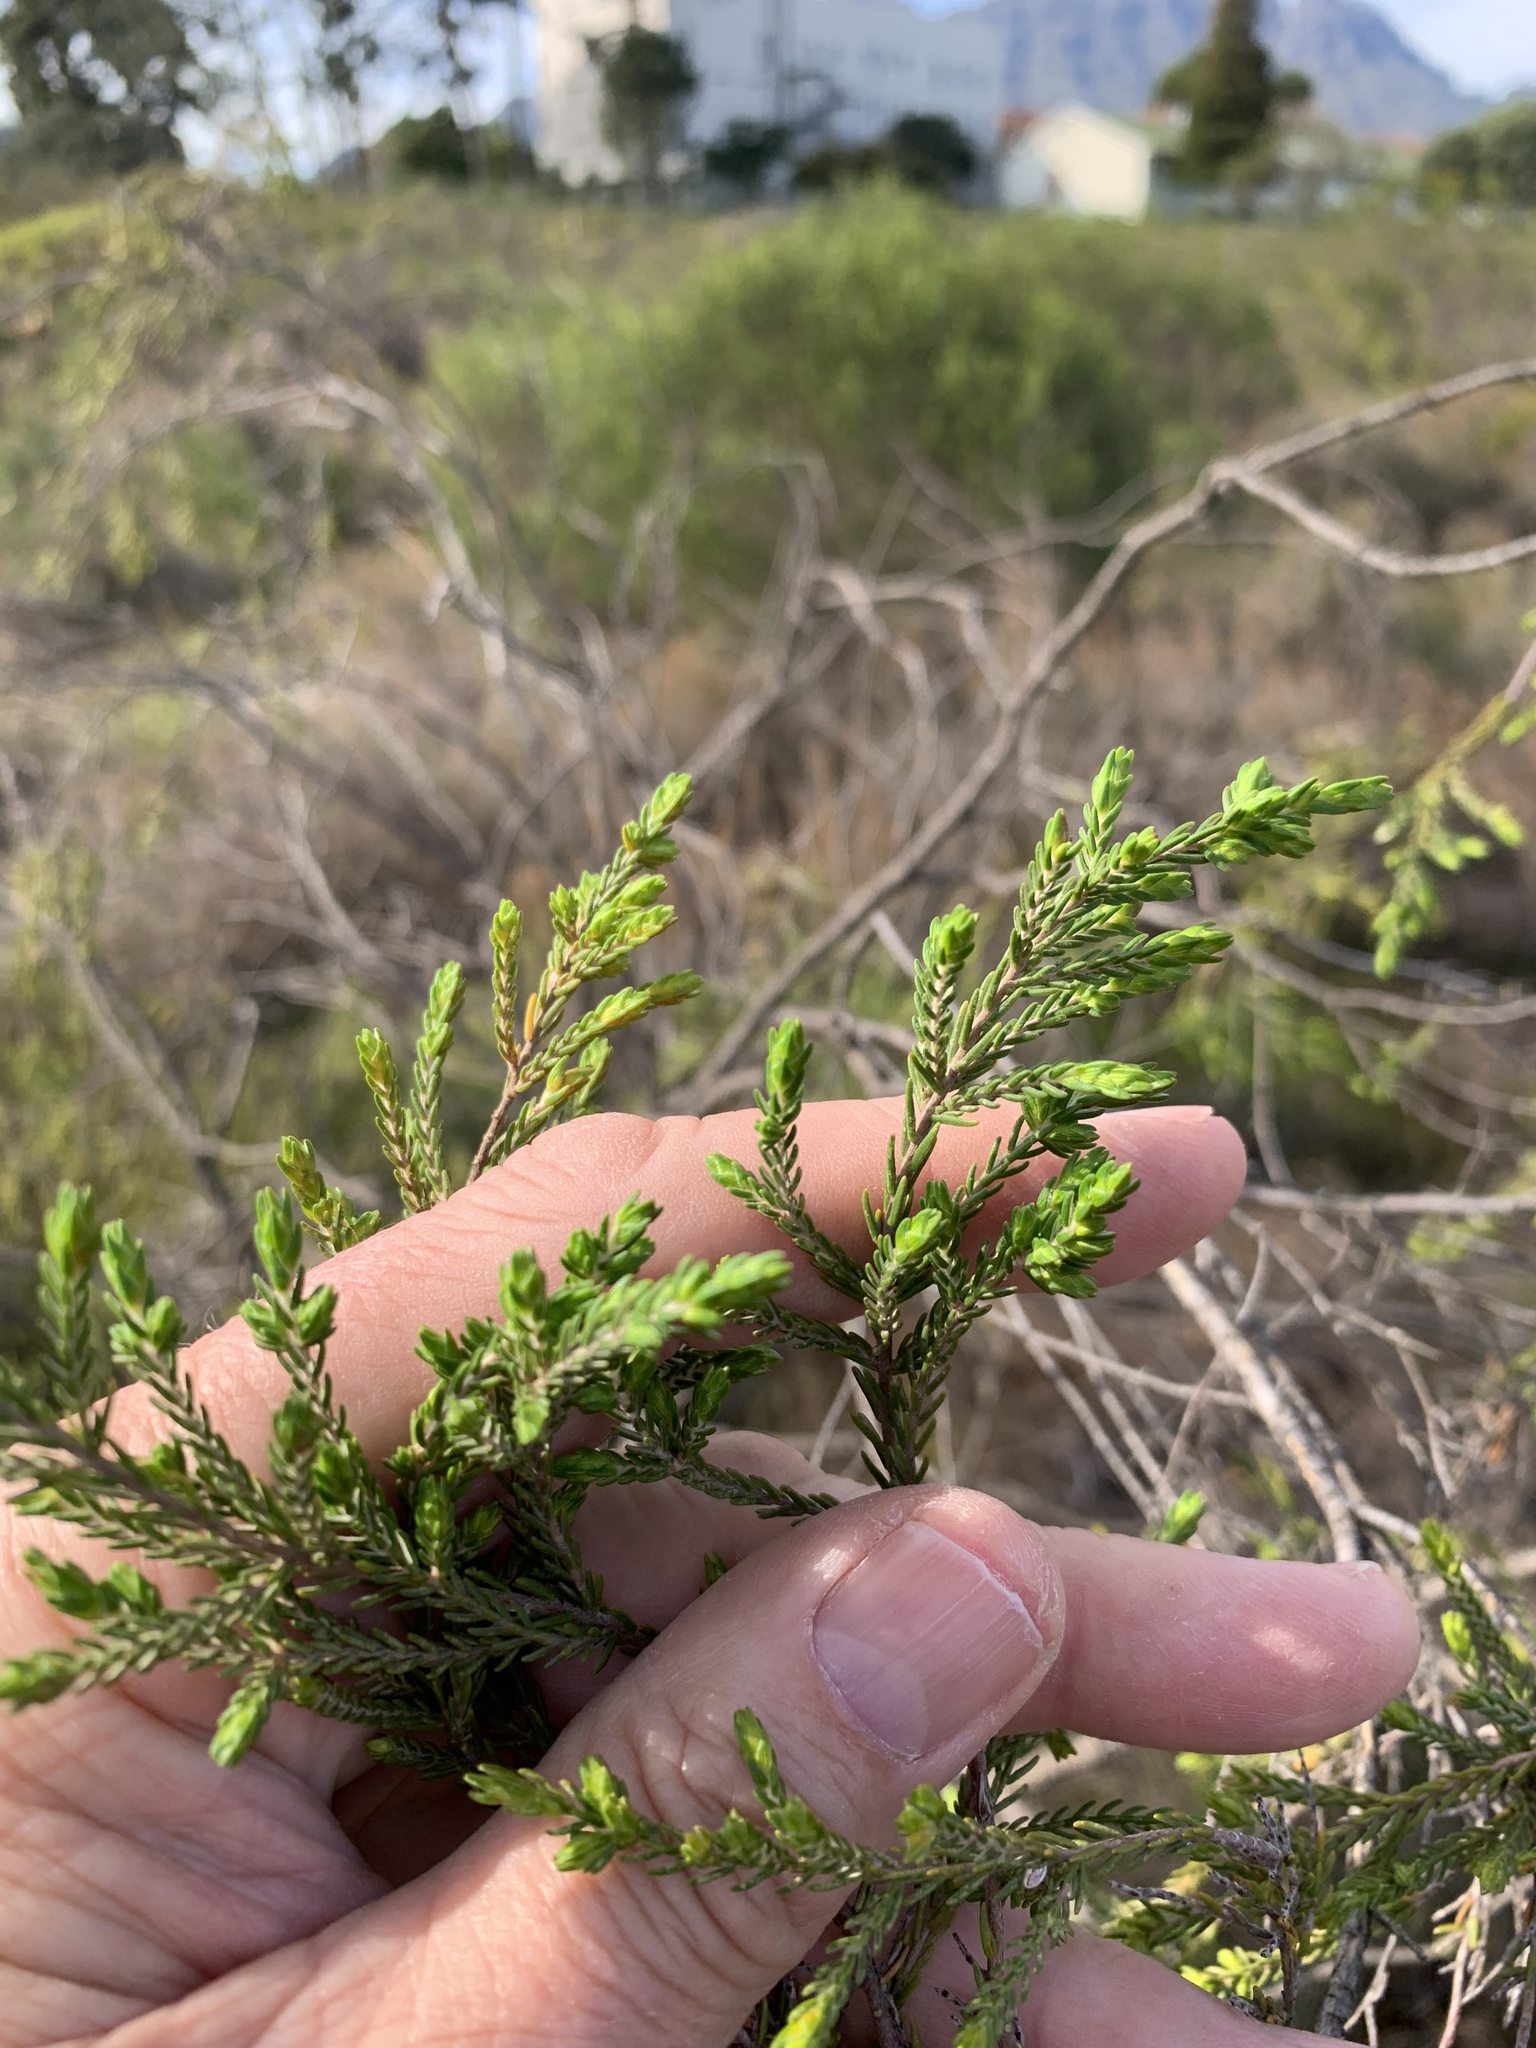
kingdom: Plantae
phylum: Tracheophyta
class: Magnoliopsida
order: Malvales
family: Thymelaeaceae
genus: Passerina
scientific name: Passerina corymbosa
